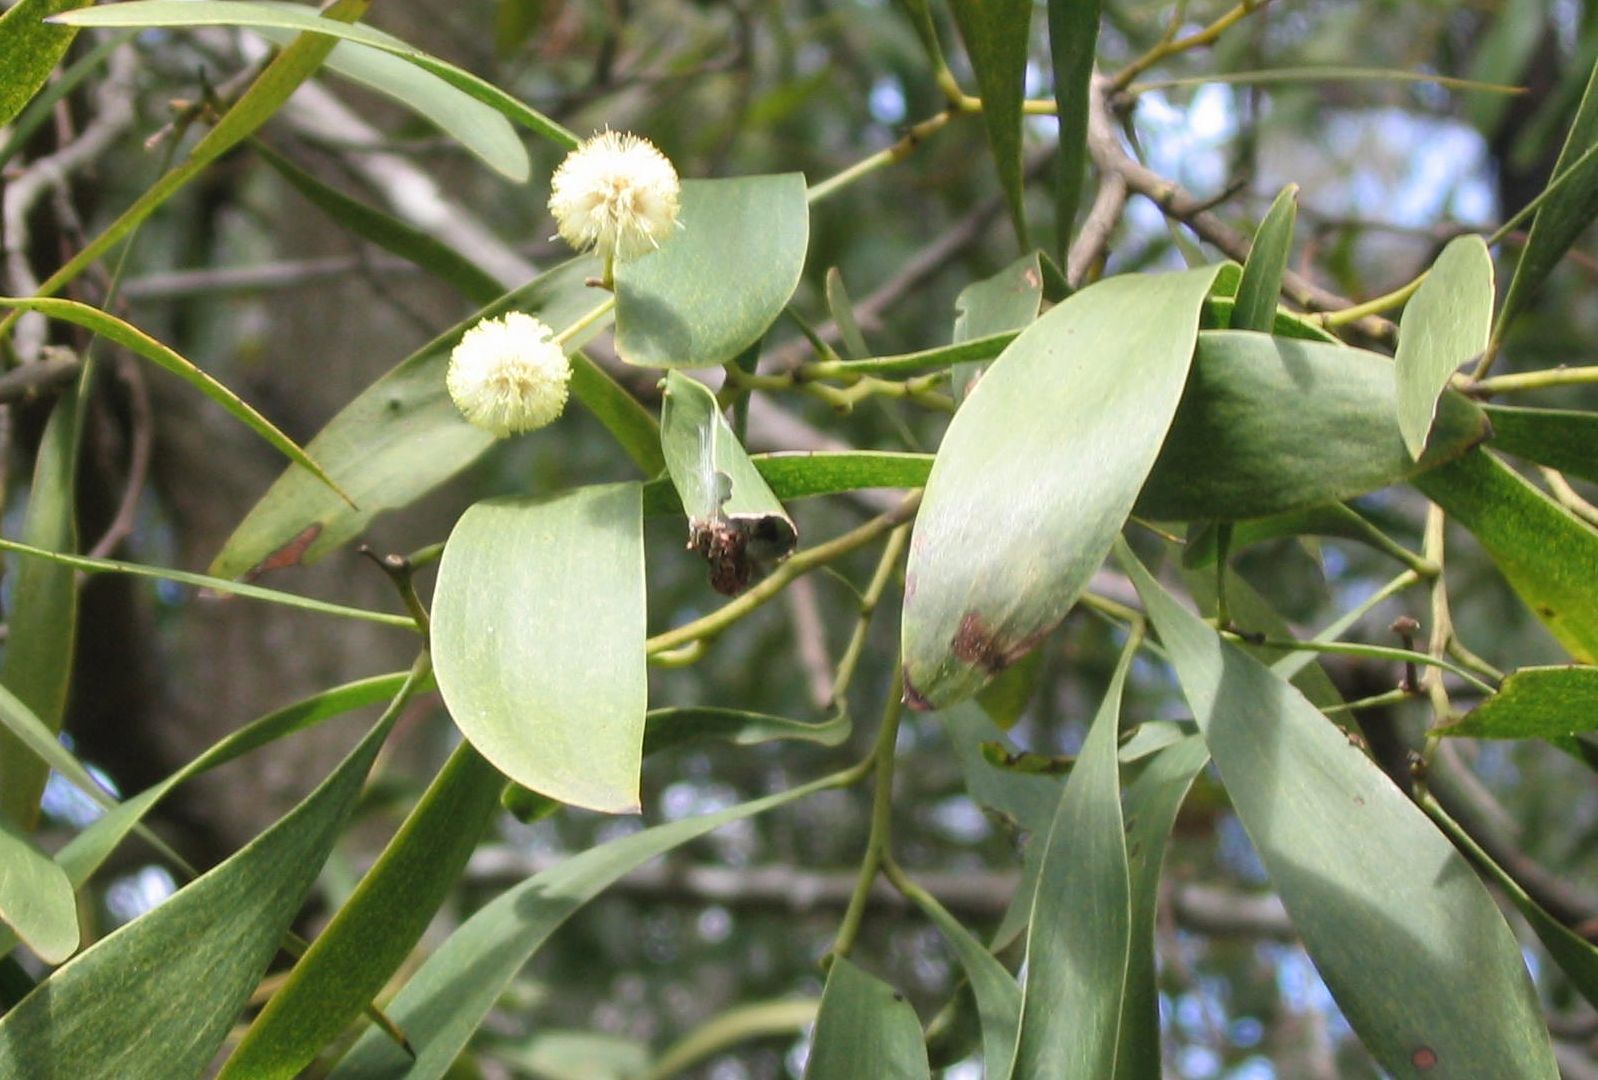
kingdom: Plantae
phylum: Tracheophyta
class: Magnoliopsida
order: Fabales
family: Fabaceae
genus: Acacia
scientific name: Acacia melanoxylon
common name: Blackwood
